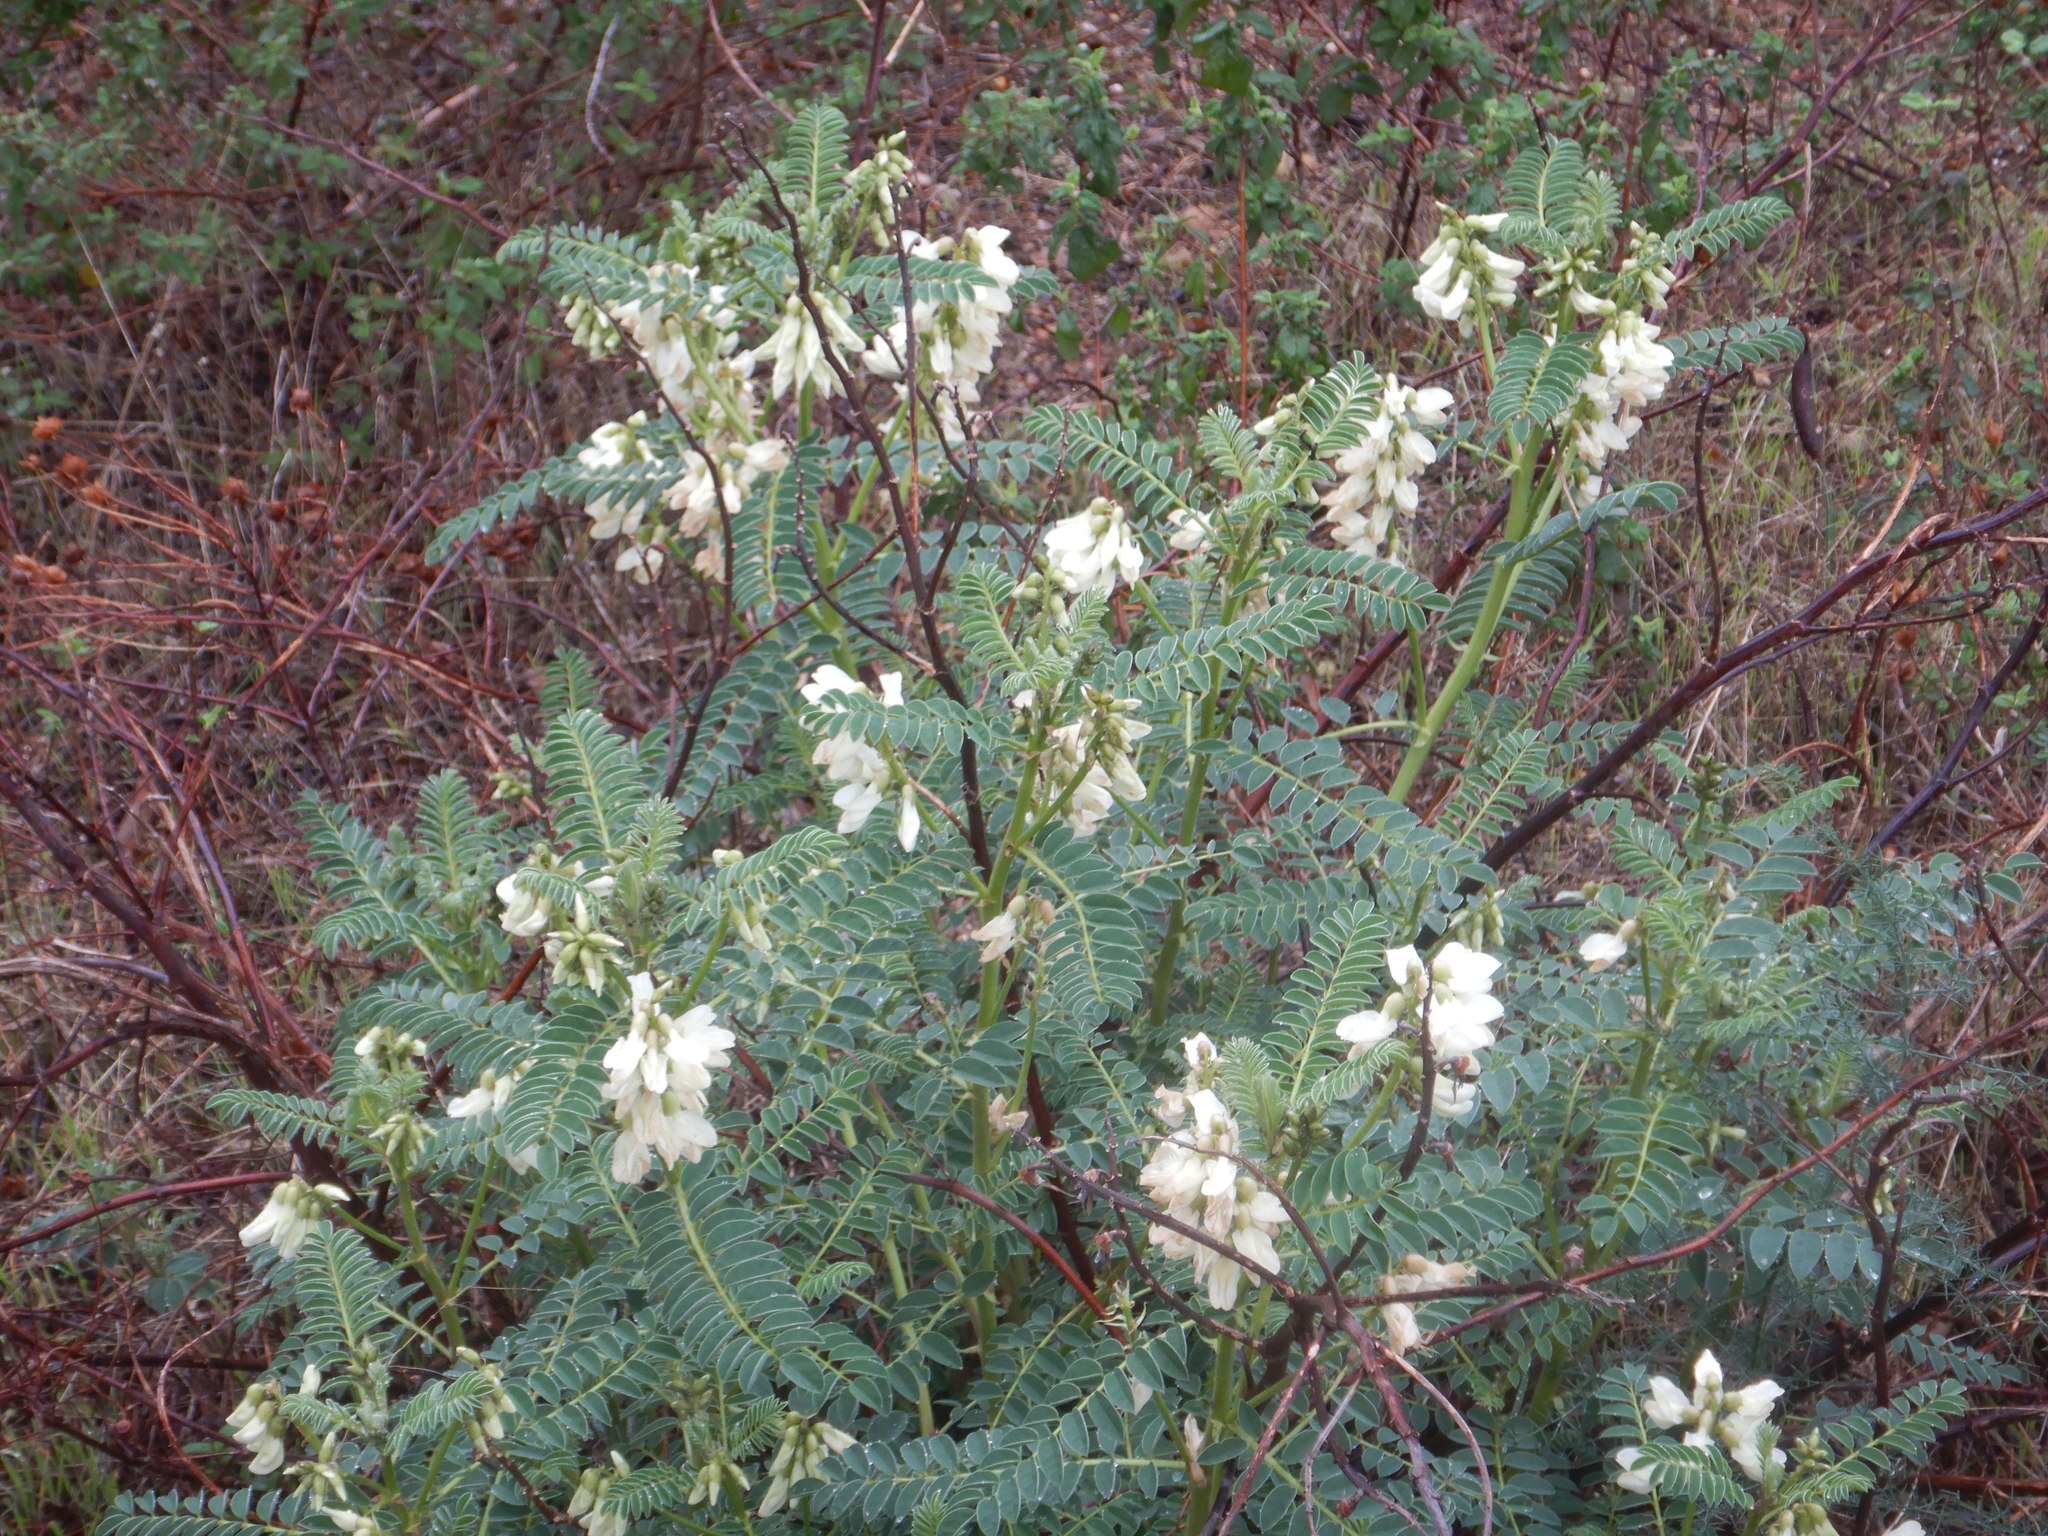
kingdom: Plantae
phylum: Tracheophyta
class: Magnoliopsida
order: Fabales
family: Fabaceae
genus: Erophaca
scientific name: Erophaca baetica
